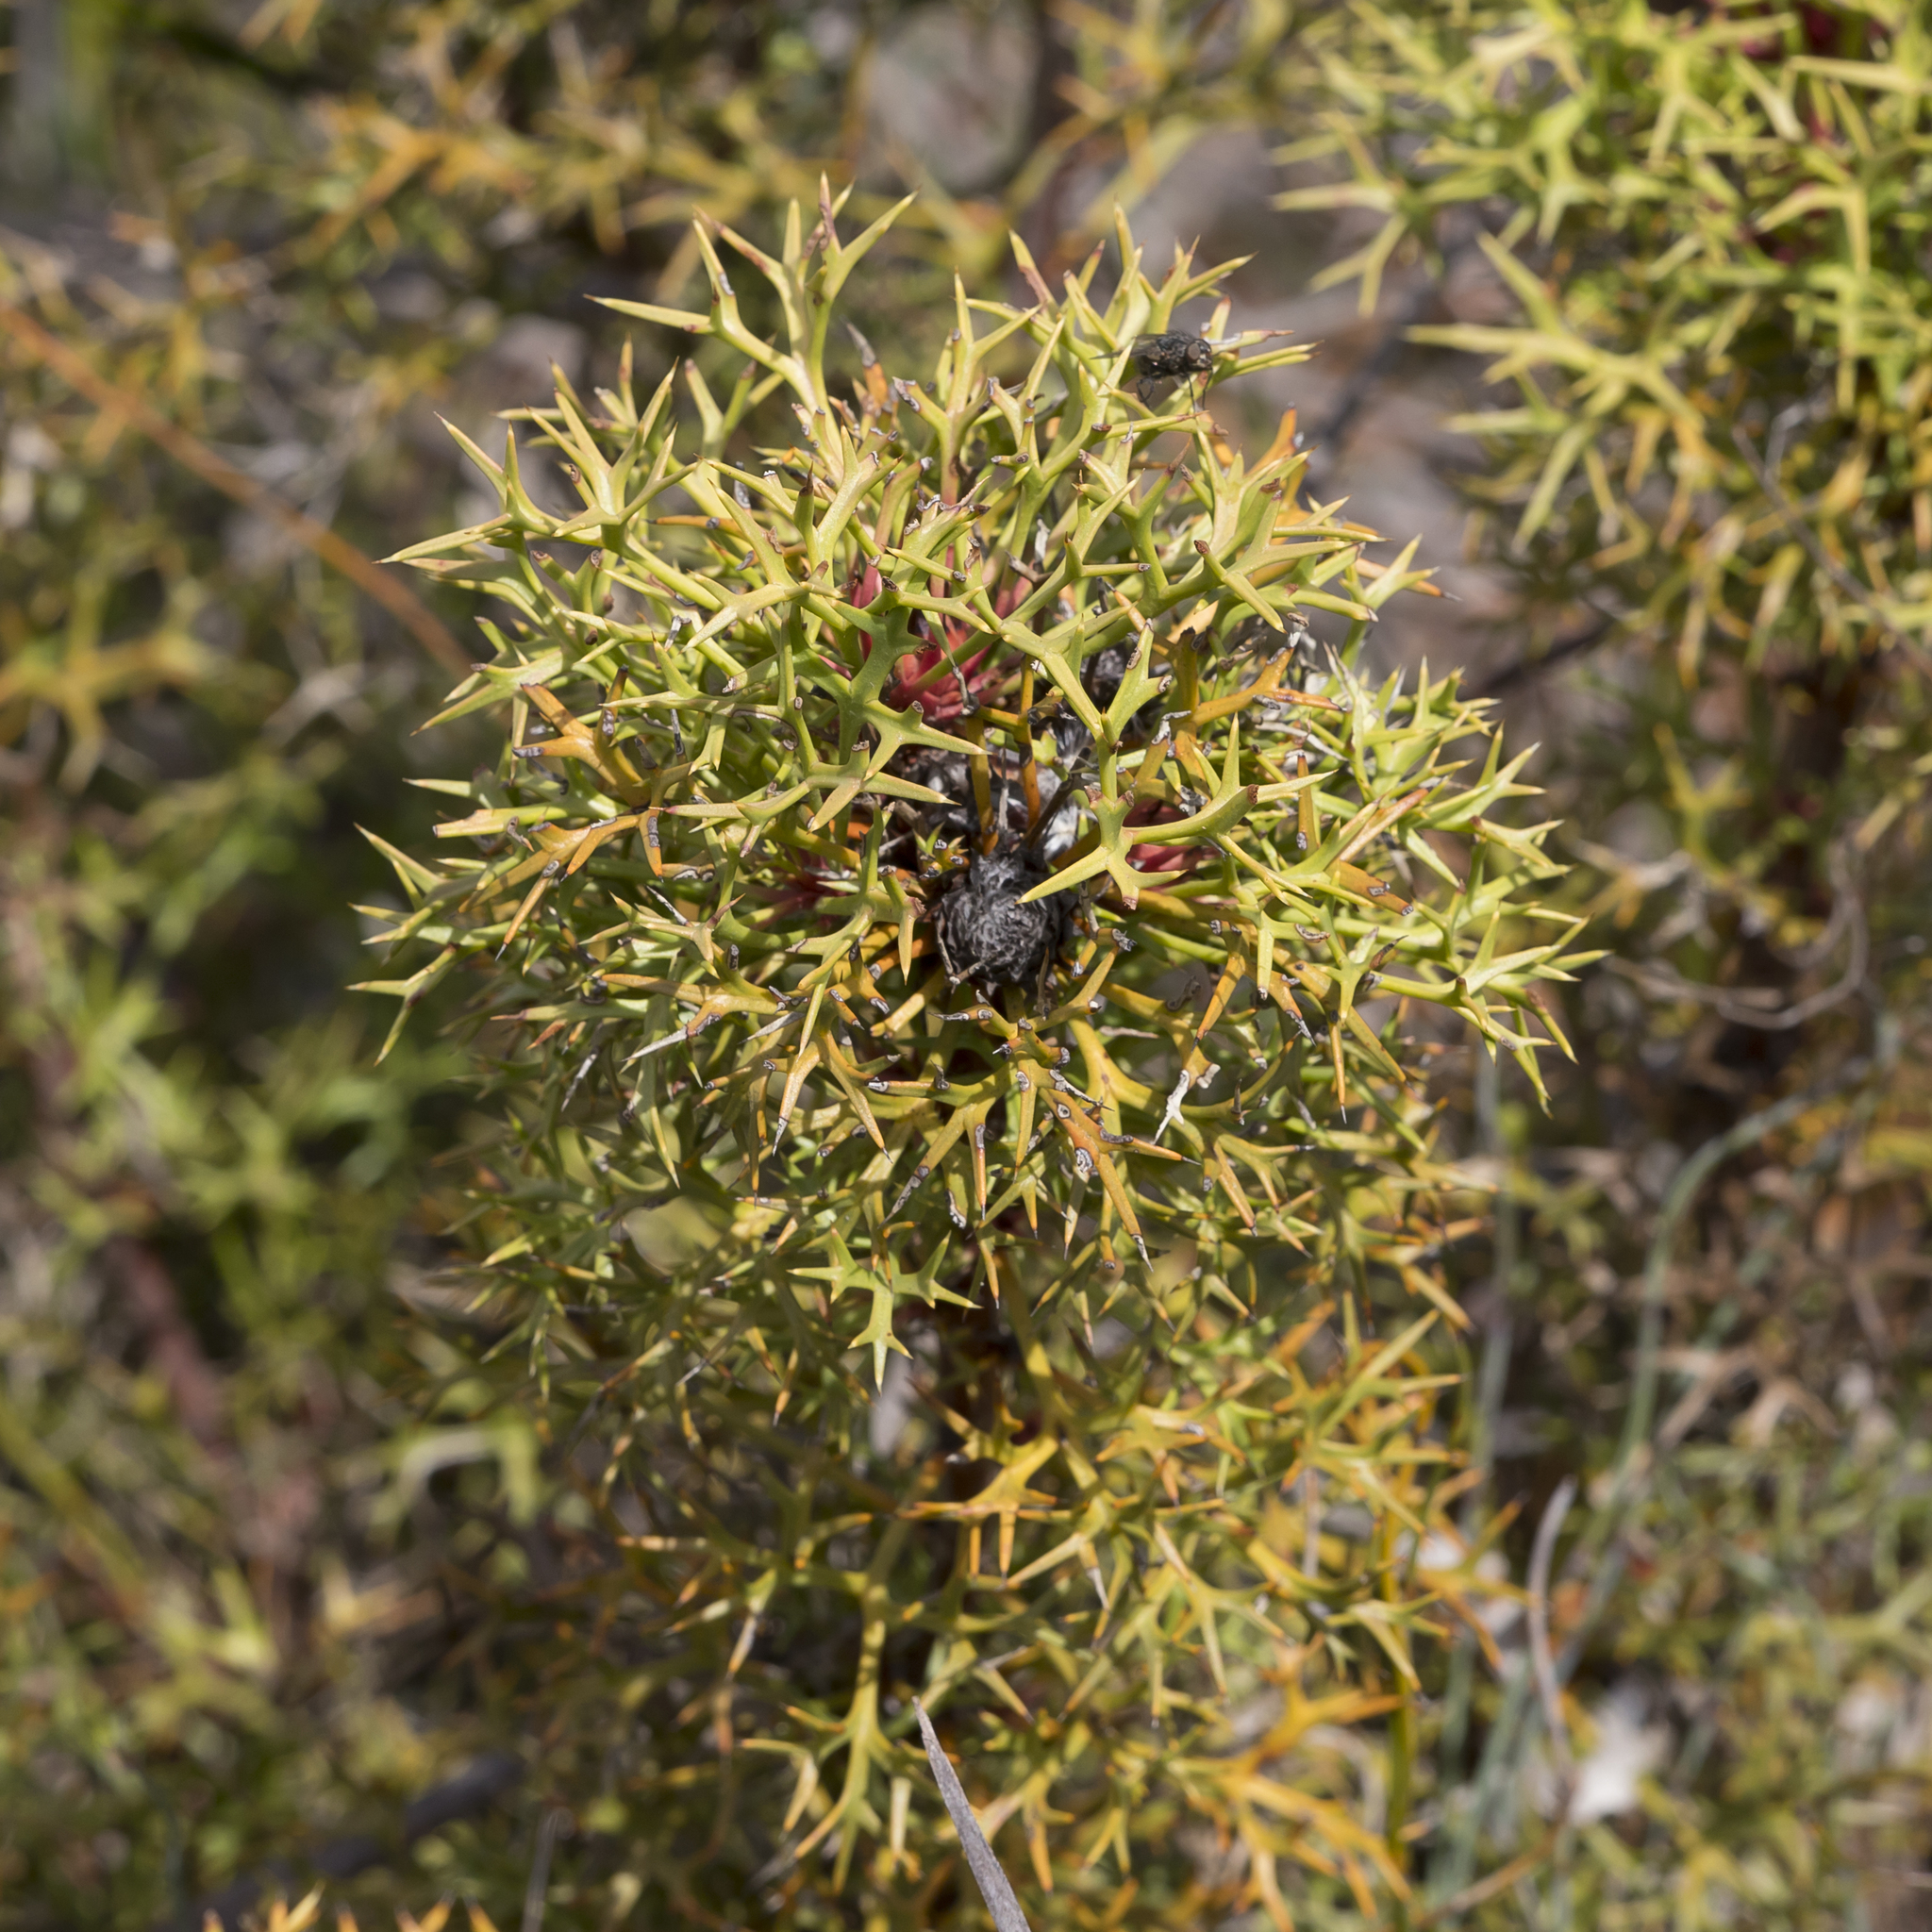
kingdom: Plantae
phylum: Tracheophyta
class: Magnoliopsida
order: Proteales
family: Proteaceae
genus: Isopogon
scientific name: Isopogon ceratophyllus
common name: Horny cone-bush
